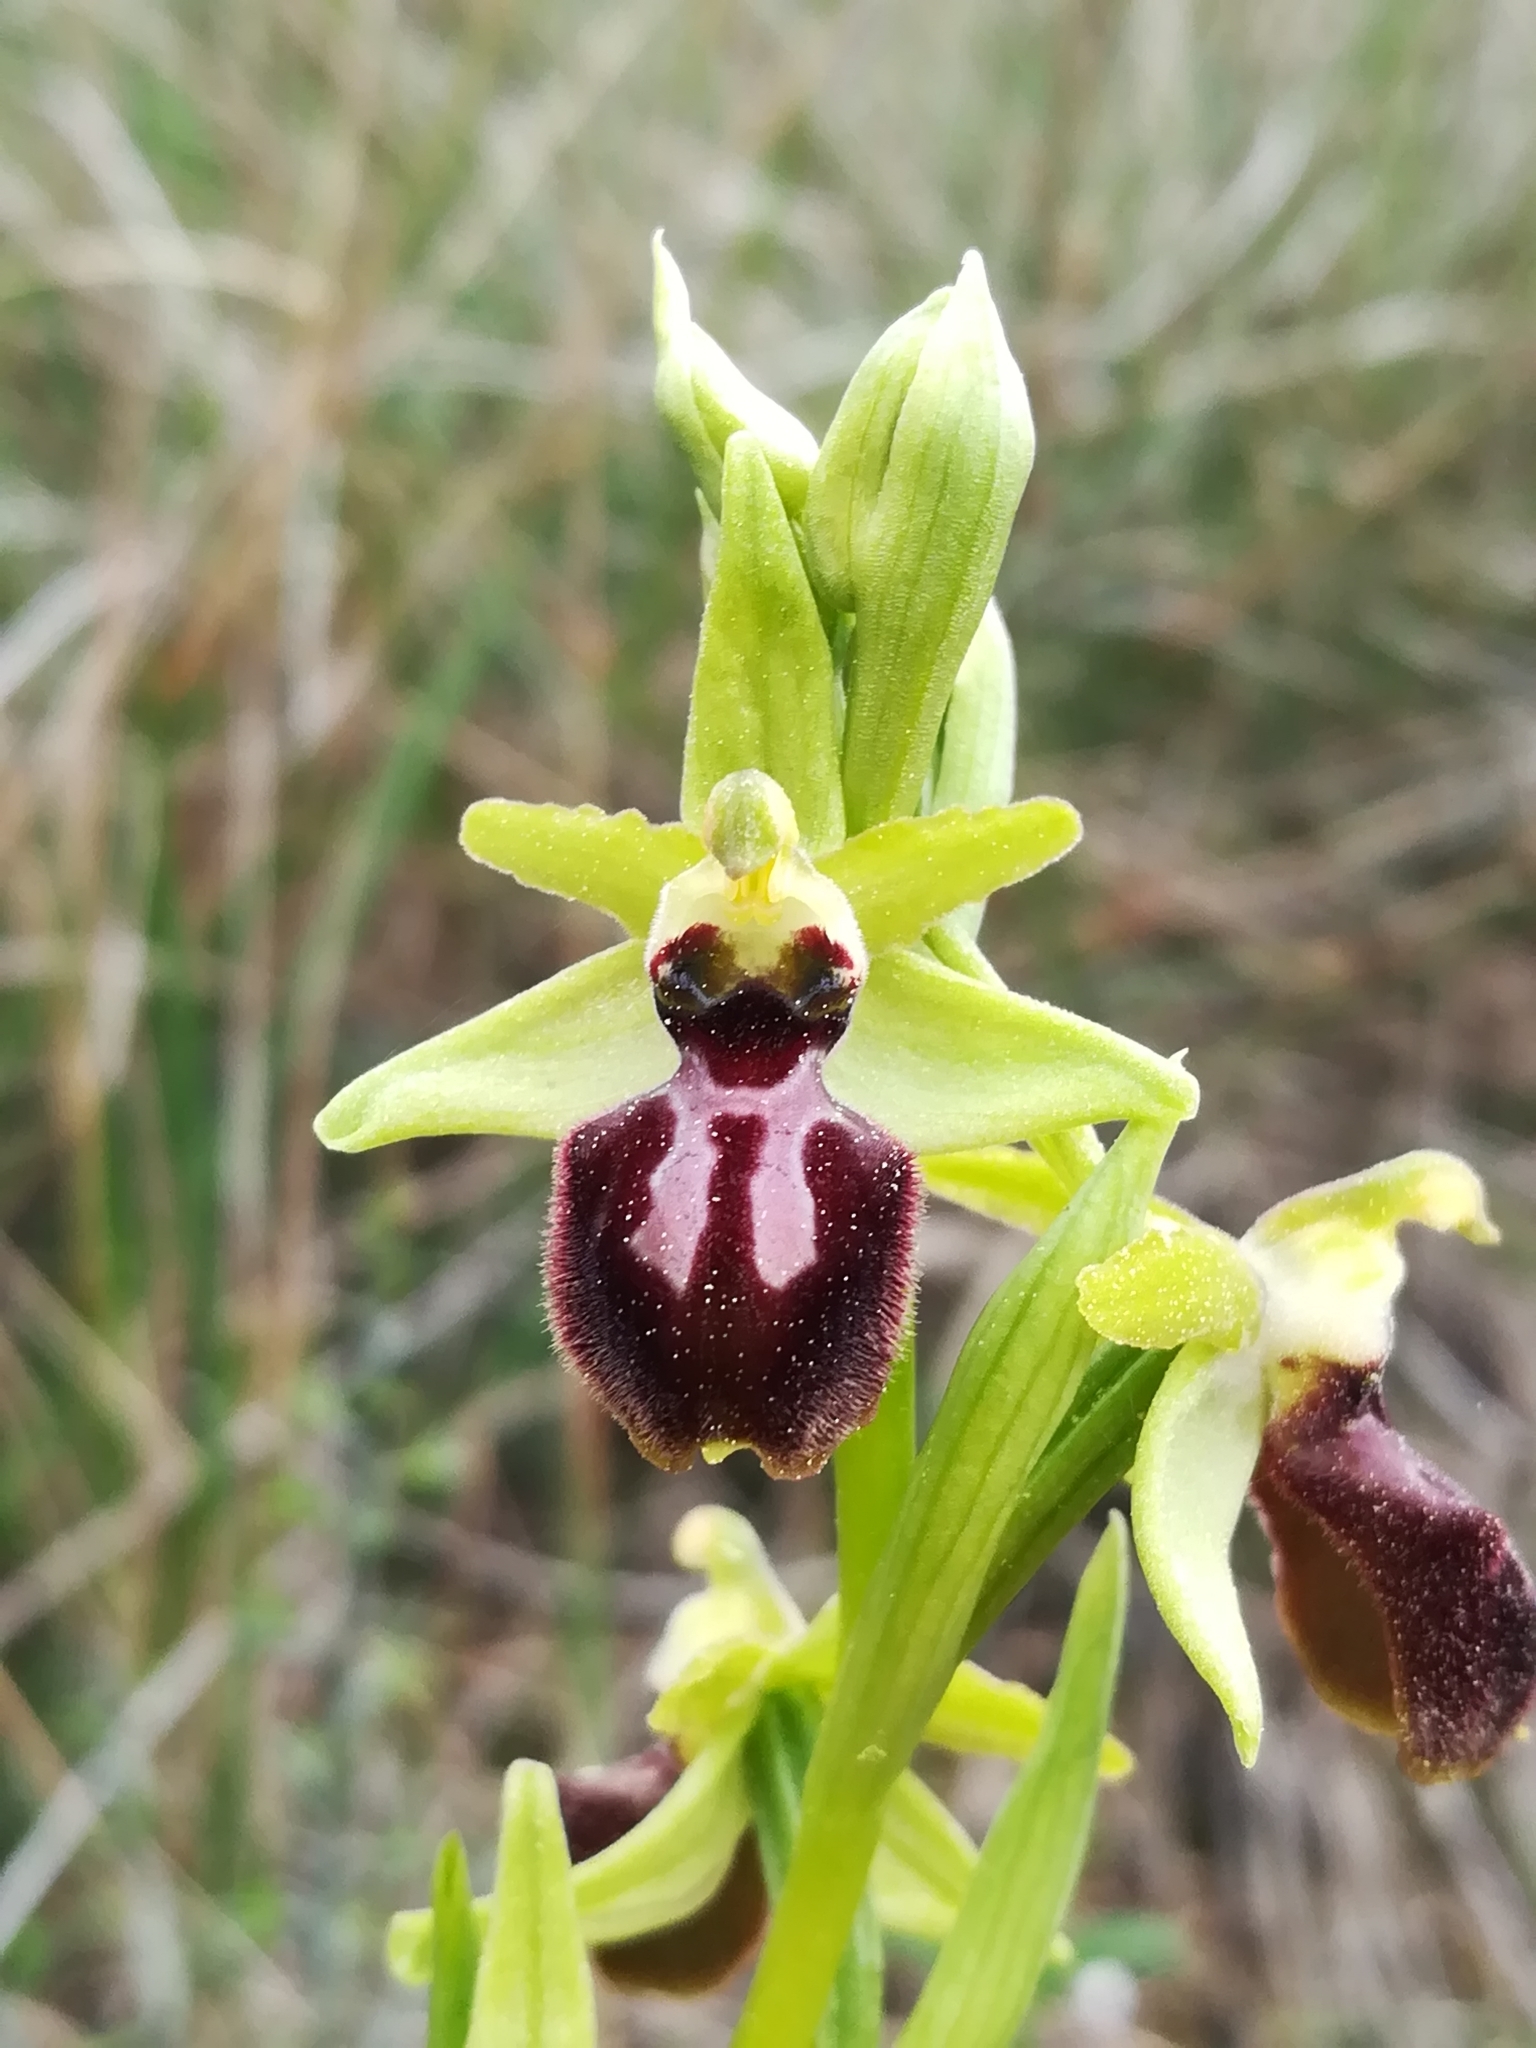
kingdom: Plantae
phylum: Tracheophyta
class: Liliopsida
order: Asparagales
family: Orchidaceae
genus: Ophrys
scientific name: Ophrys sphegodes
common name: Early spider-orchid
